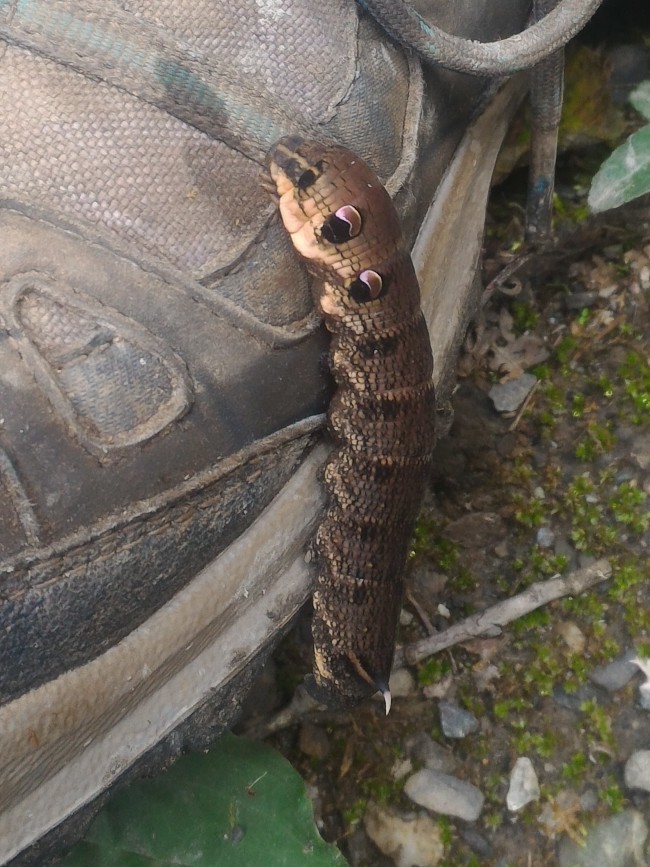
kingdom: Animalia
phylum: Arthropoda
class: Insecta
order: Lepidoptera
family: Sphingidae
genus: Deilephila
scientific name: Deilephila elpenor
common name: Elephant hawk-moth
